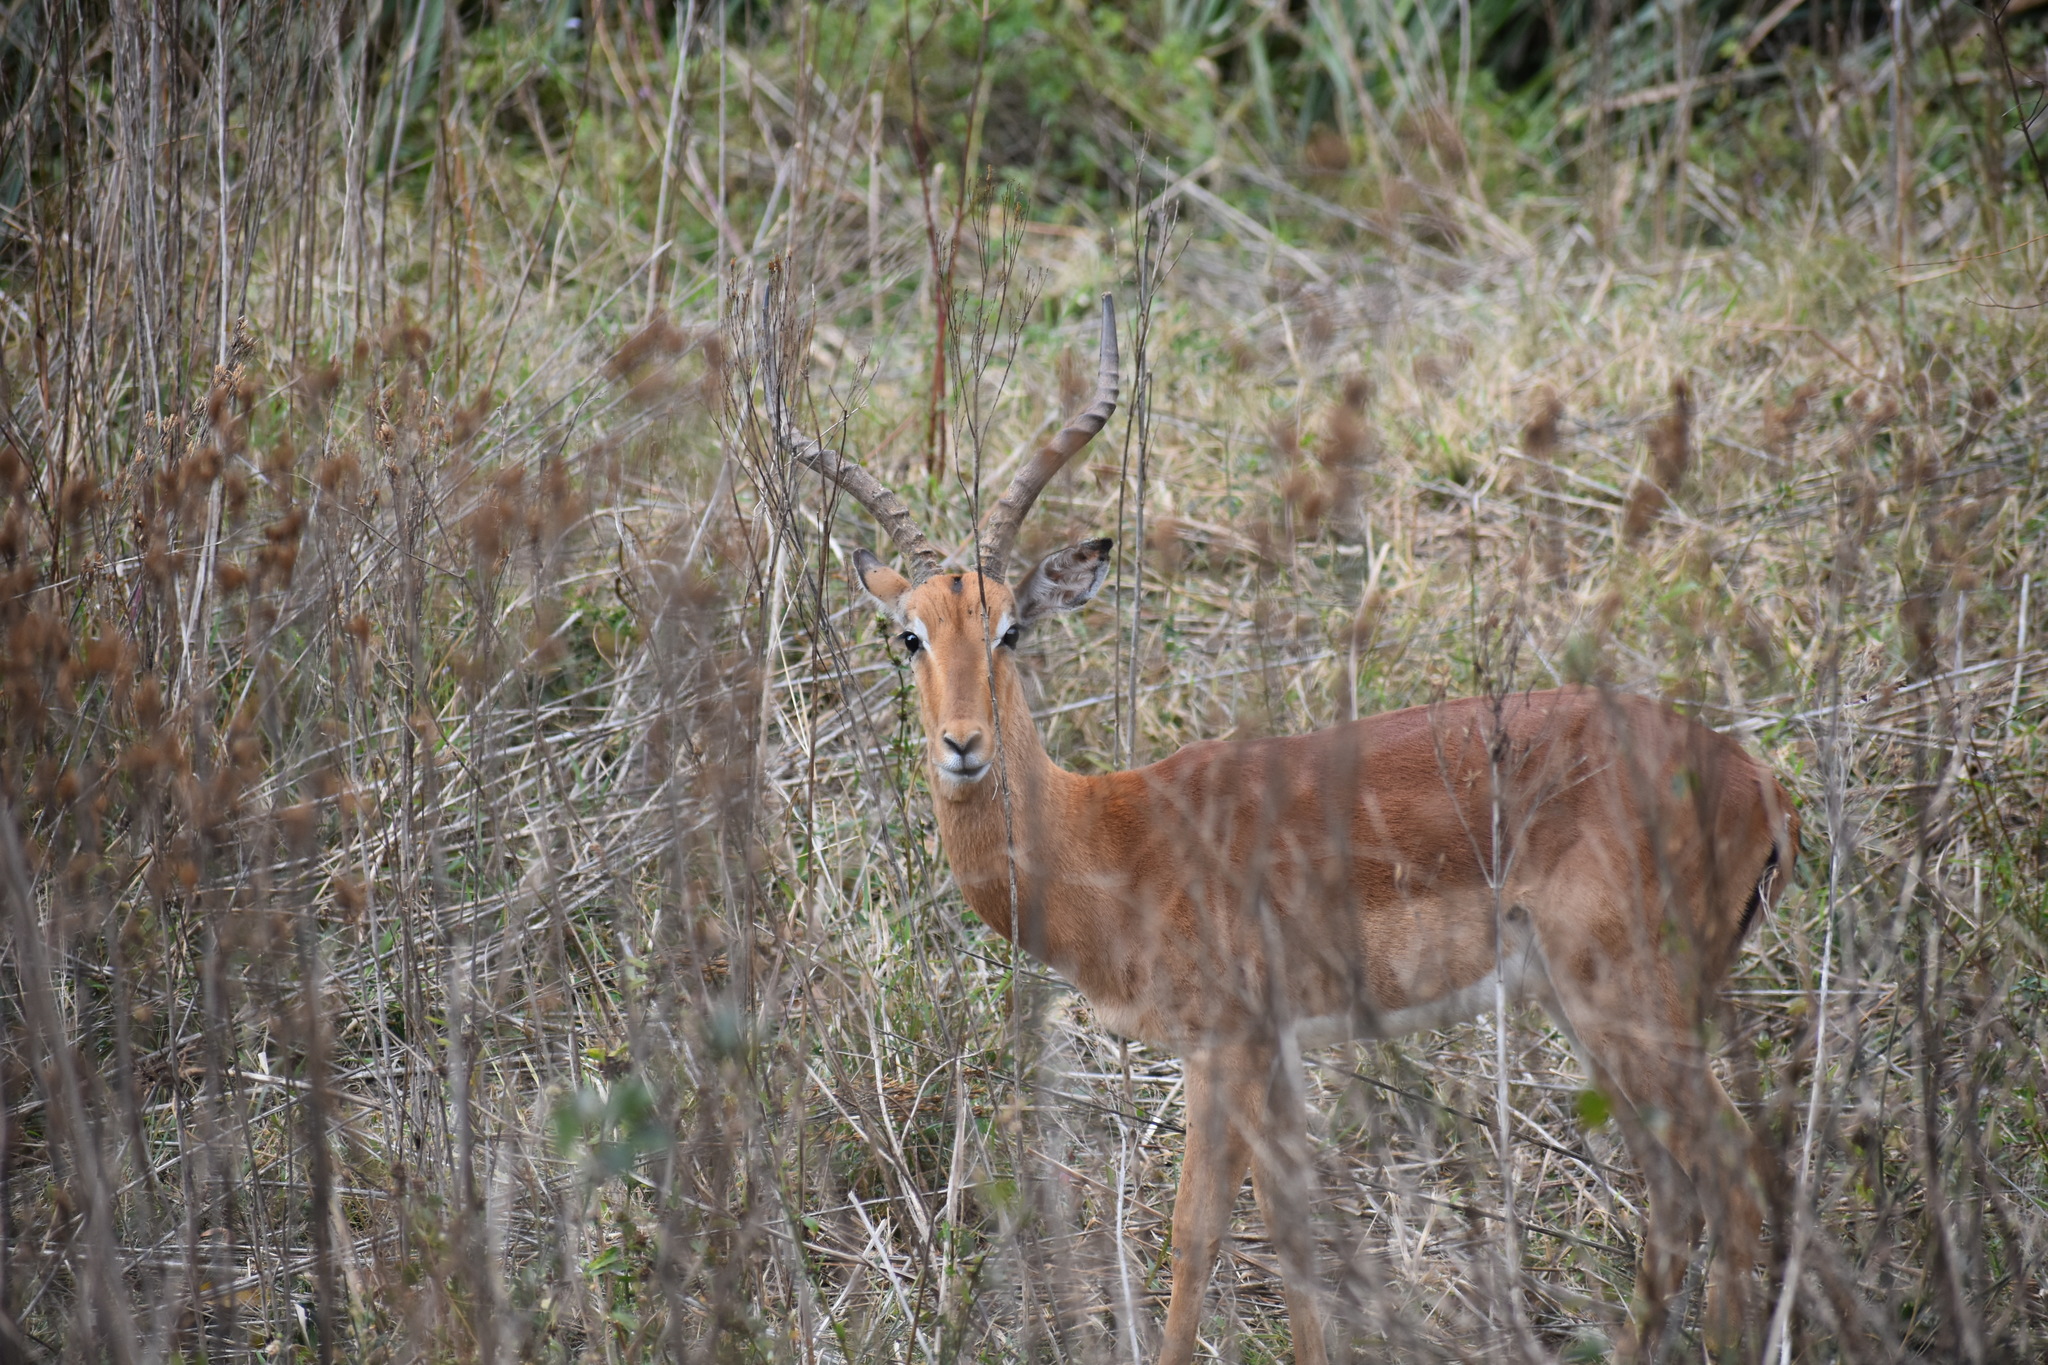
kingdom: Animalia
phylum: Chordata
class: Mammalia
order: Artiodactyla
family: Bovidae
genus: Aepyceros
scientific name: Aepyceros melampus
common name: Impala
